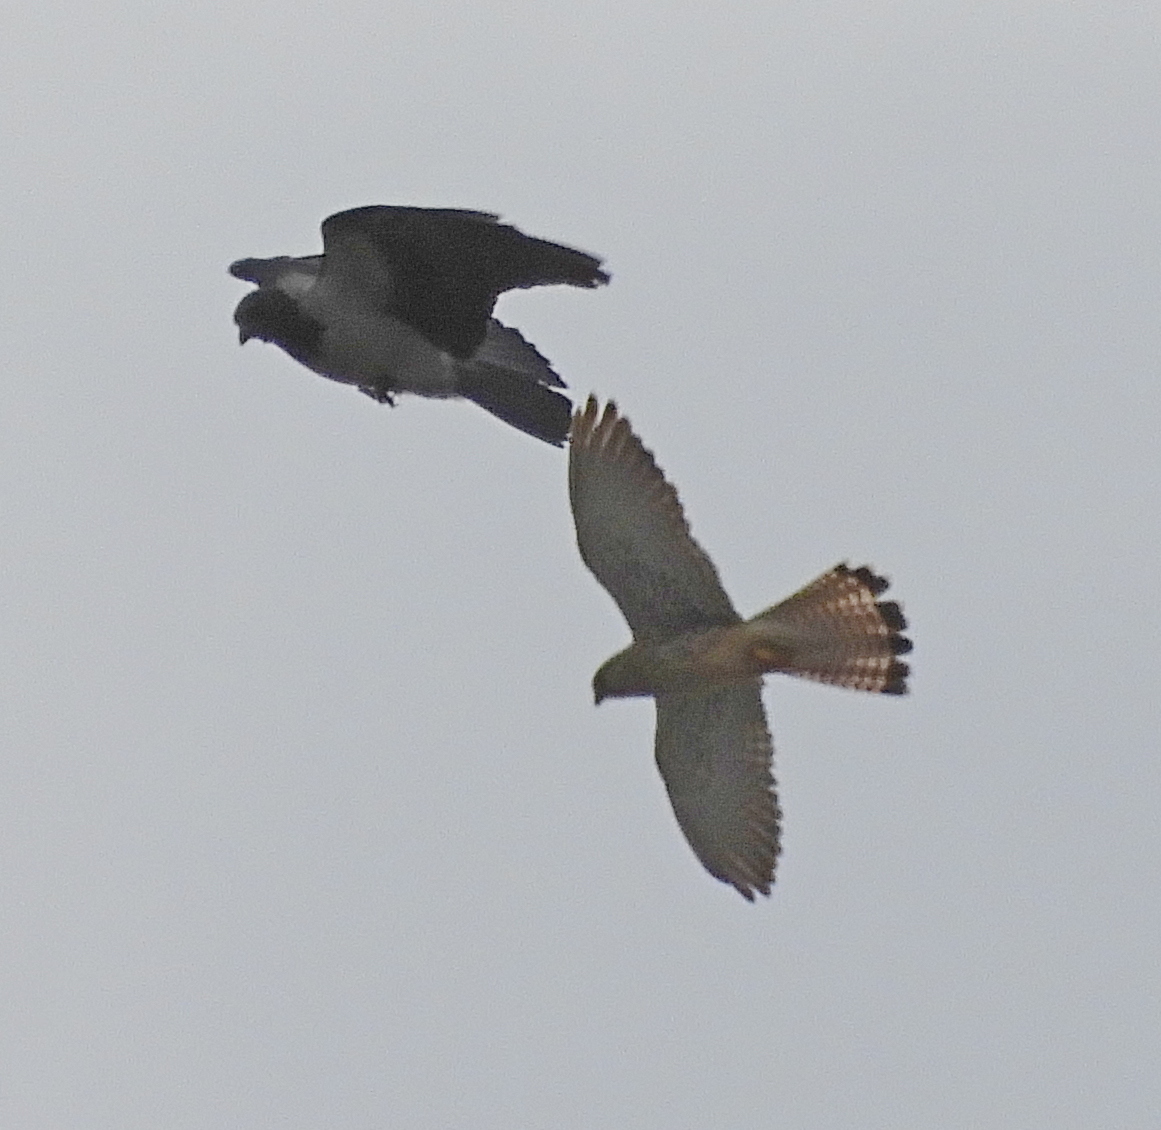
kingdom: Animalia
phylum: Chordata
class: Aves
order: Falconiformes
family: Falconidae
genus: Falco
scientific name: Falco tinnunculus
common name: Common kestrel
